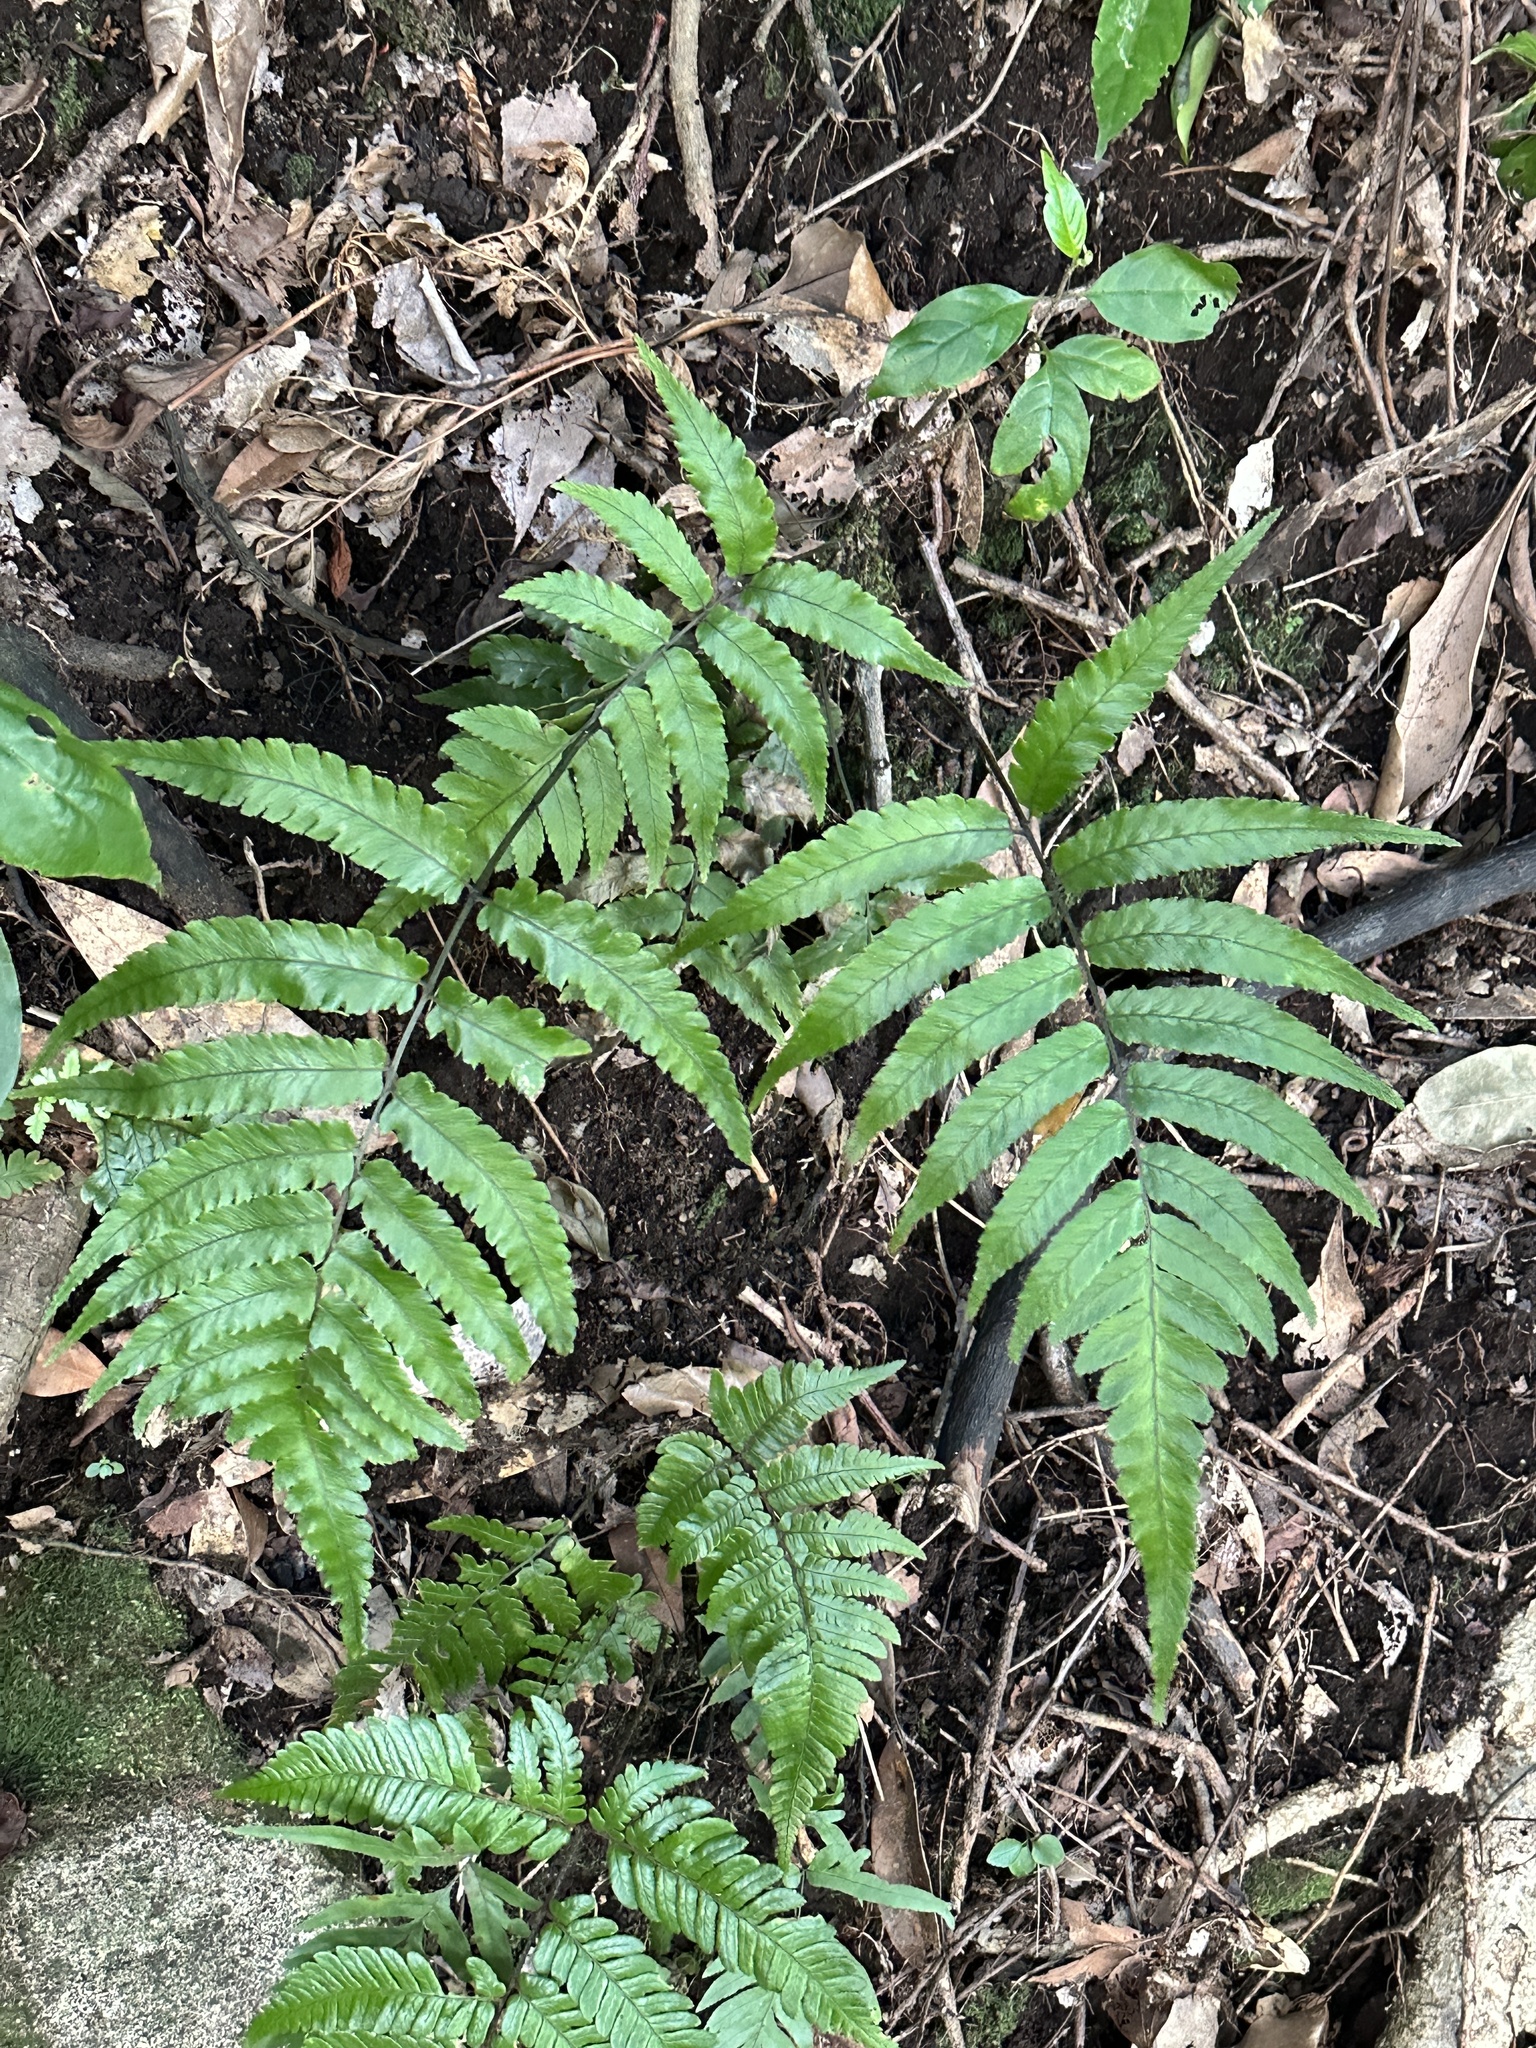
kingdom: Plantae
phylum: Tracheophyta
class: Polypodiopsida
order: Polypodiales
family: Athyriaceae
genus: Diplazium
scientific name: Diplazium fauriei
